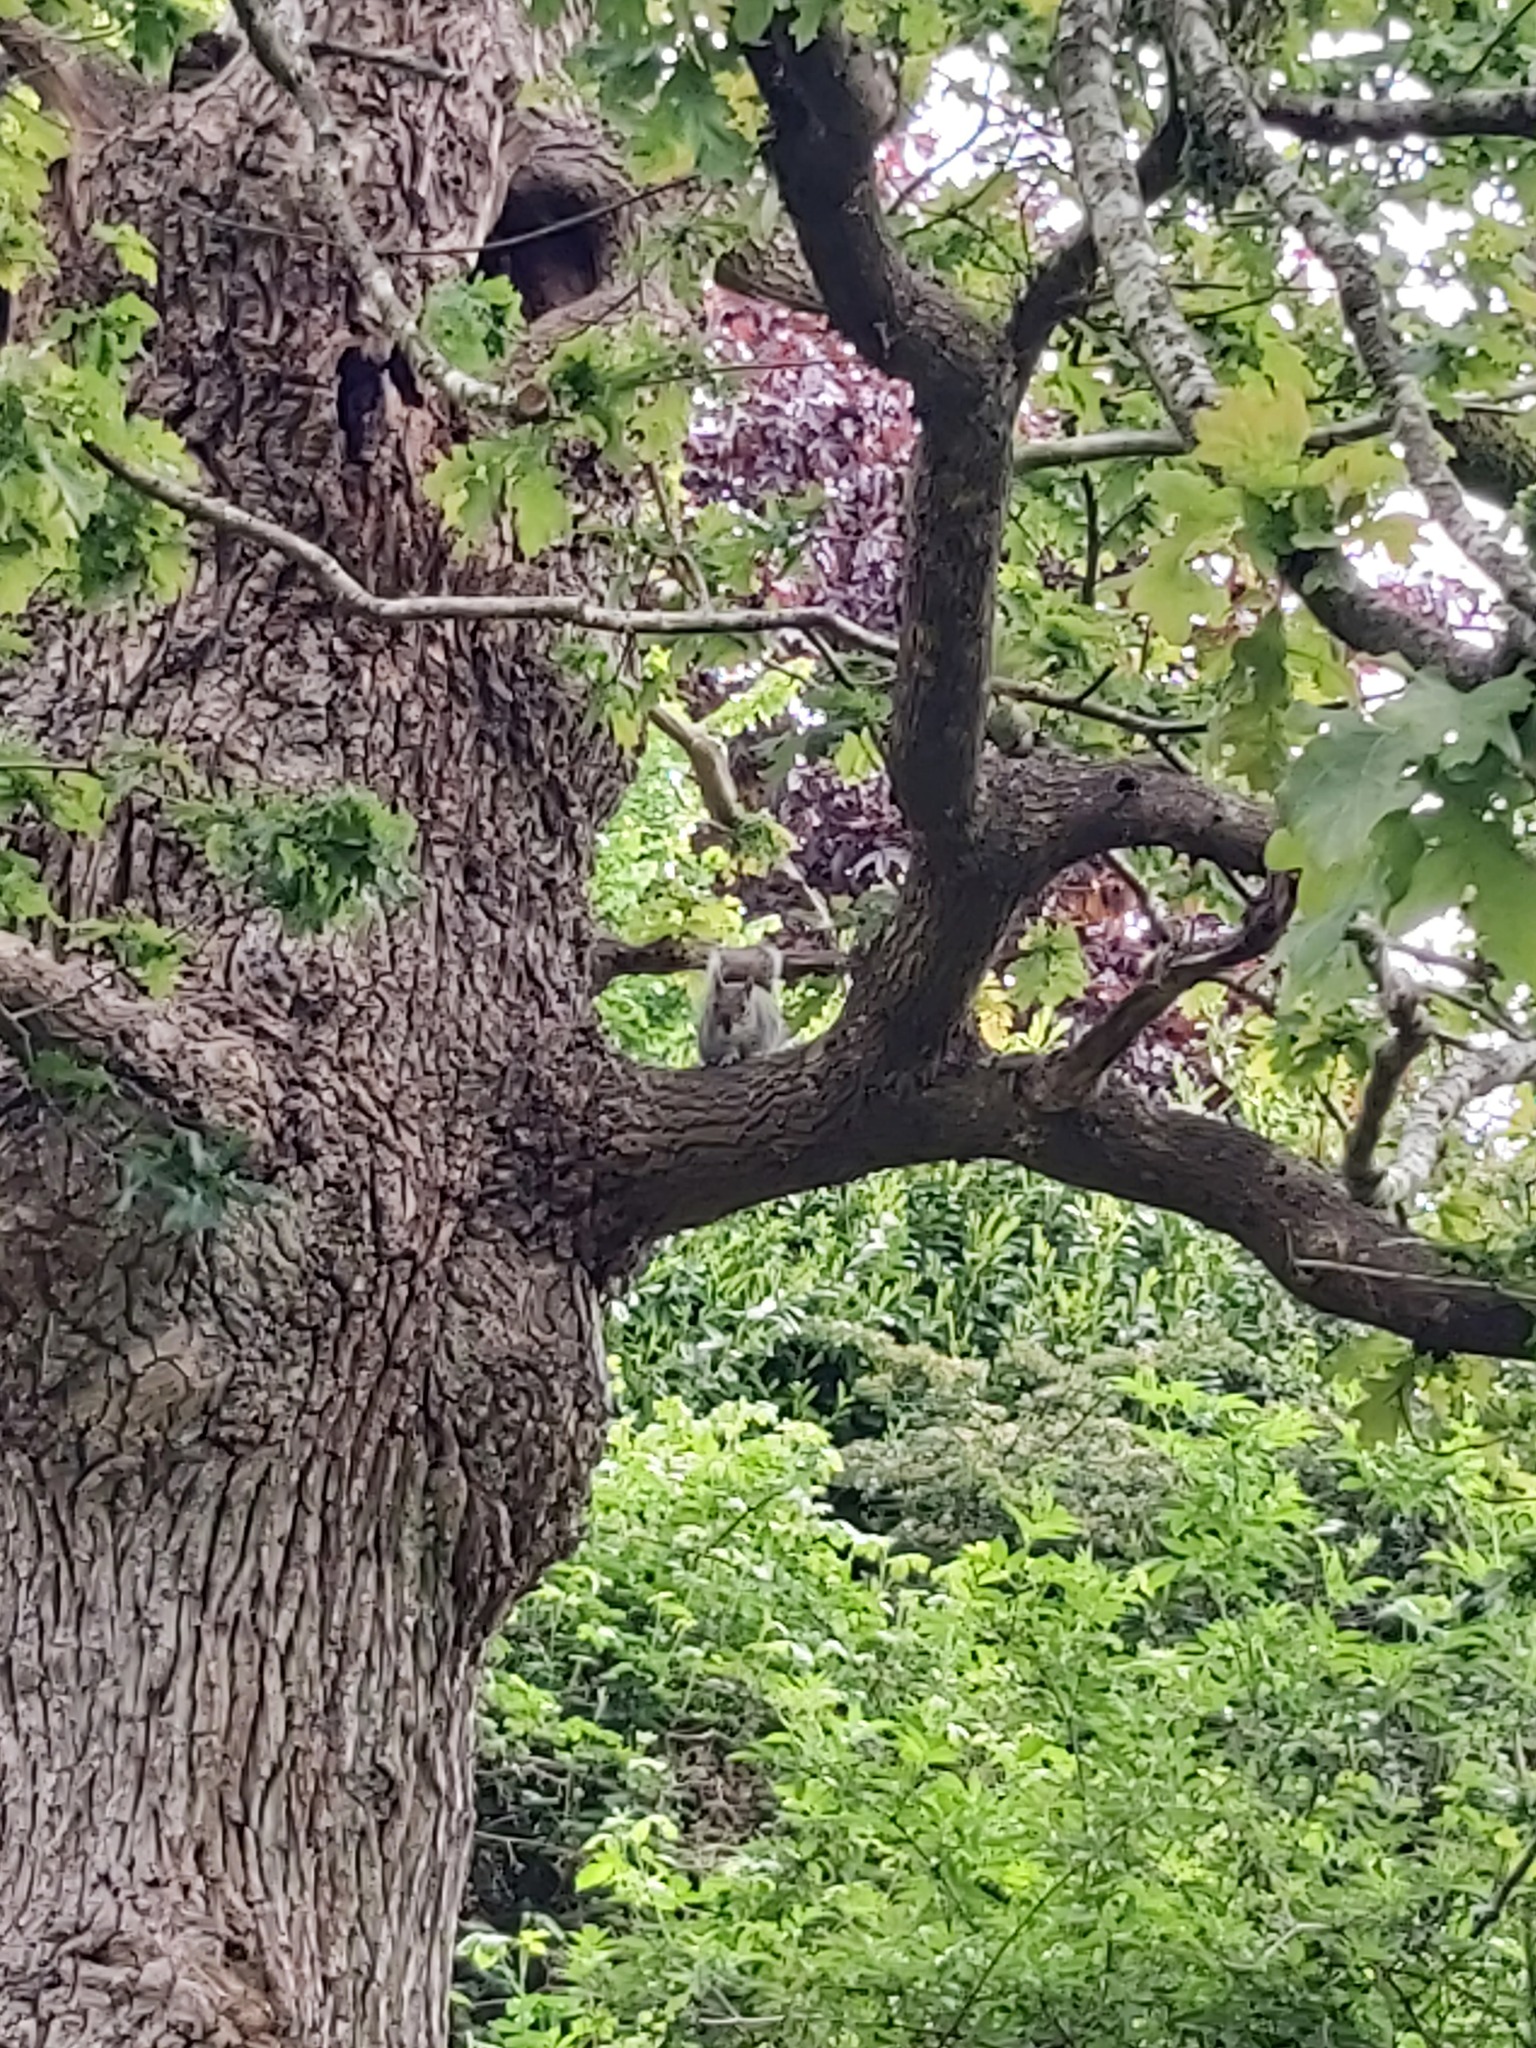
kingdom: Animalia
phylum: Chordata
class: Mammalia
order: Rodentia
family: Sciuridae
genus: Sciurus
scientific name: Sciurus carolinensis
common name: Eastern gray squirrel
